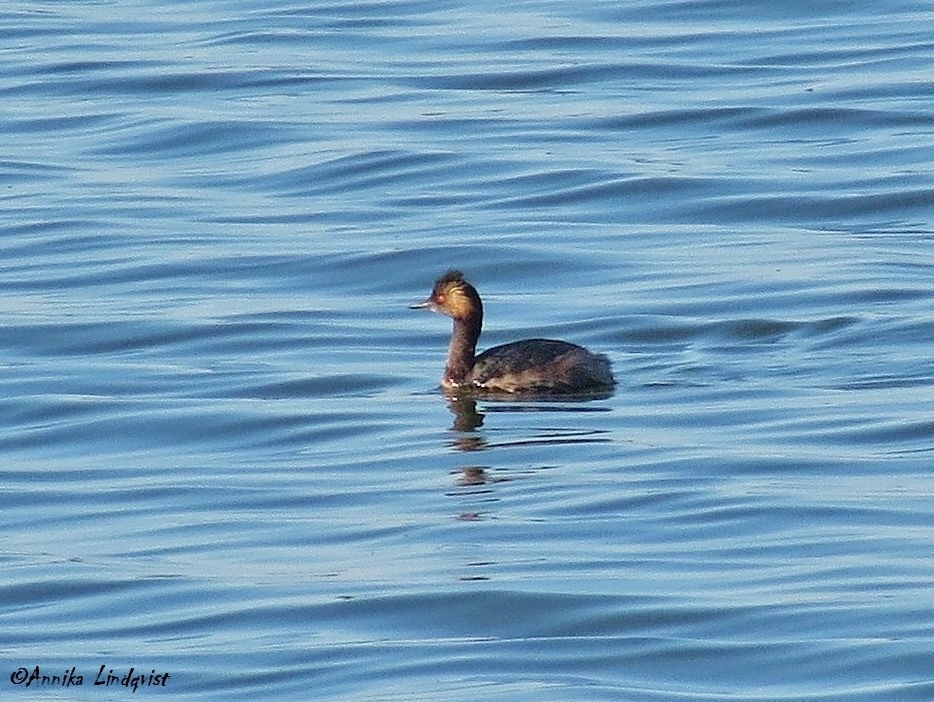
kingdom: Animalia
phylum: Chordata
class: Aves
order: Podicipediformes
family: Podicipedidae
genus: Podiceps
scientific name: Podiceps nigricollis
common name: Black-necked grebe
